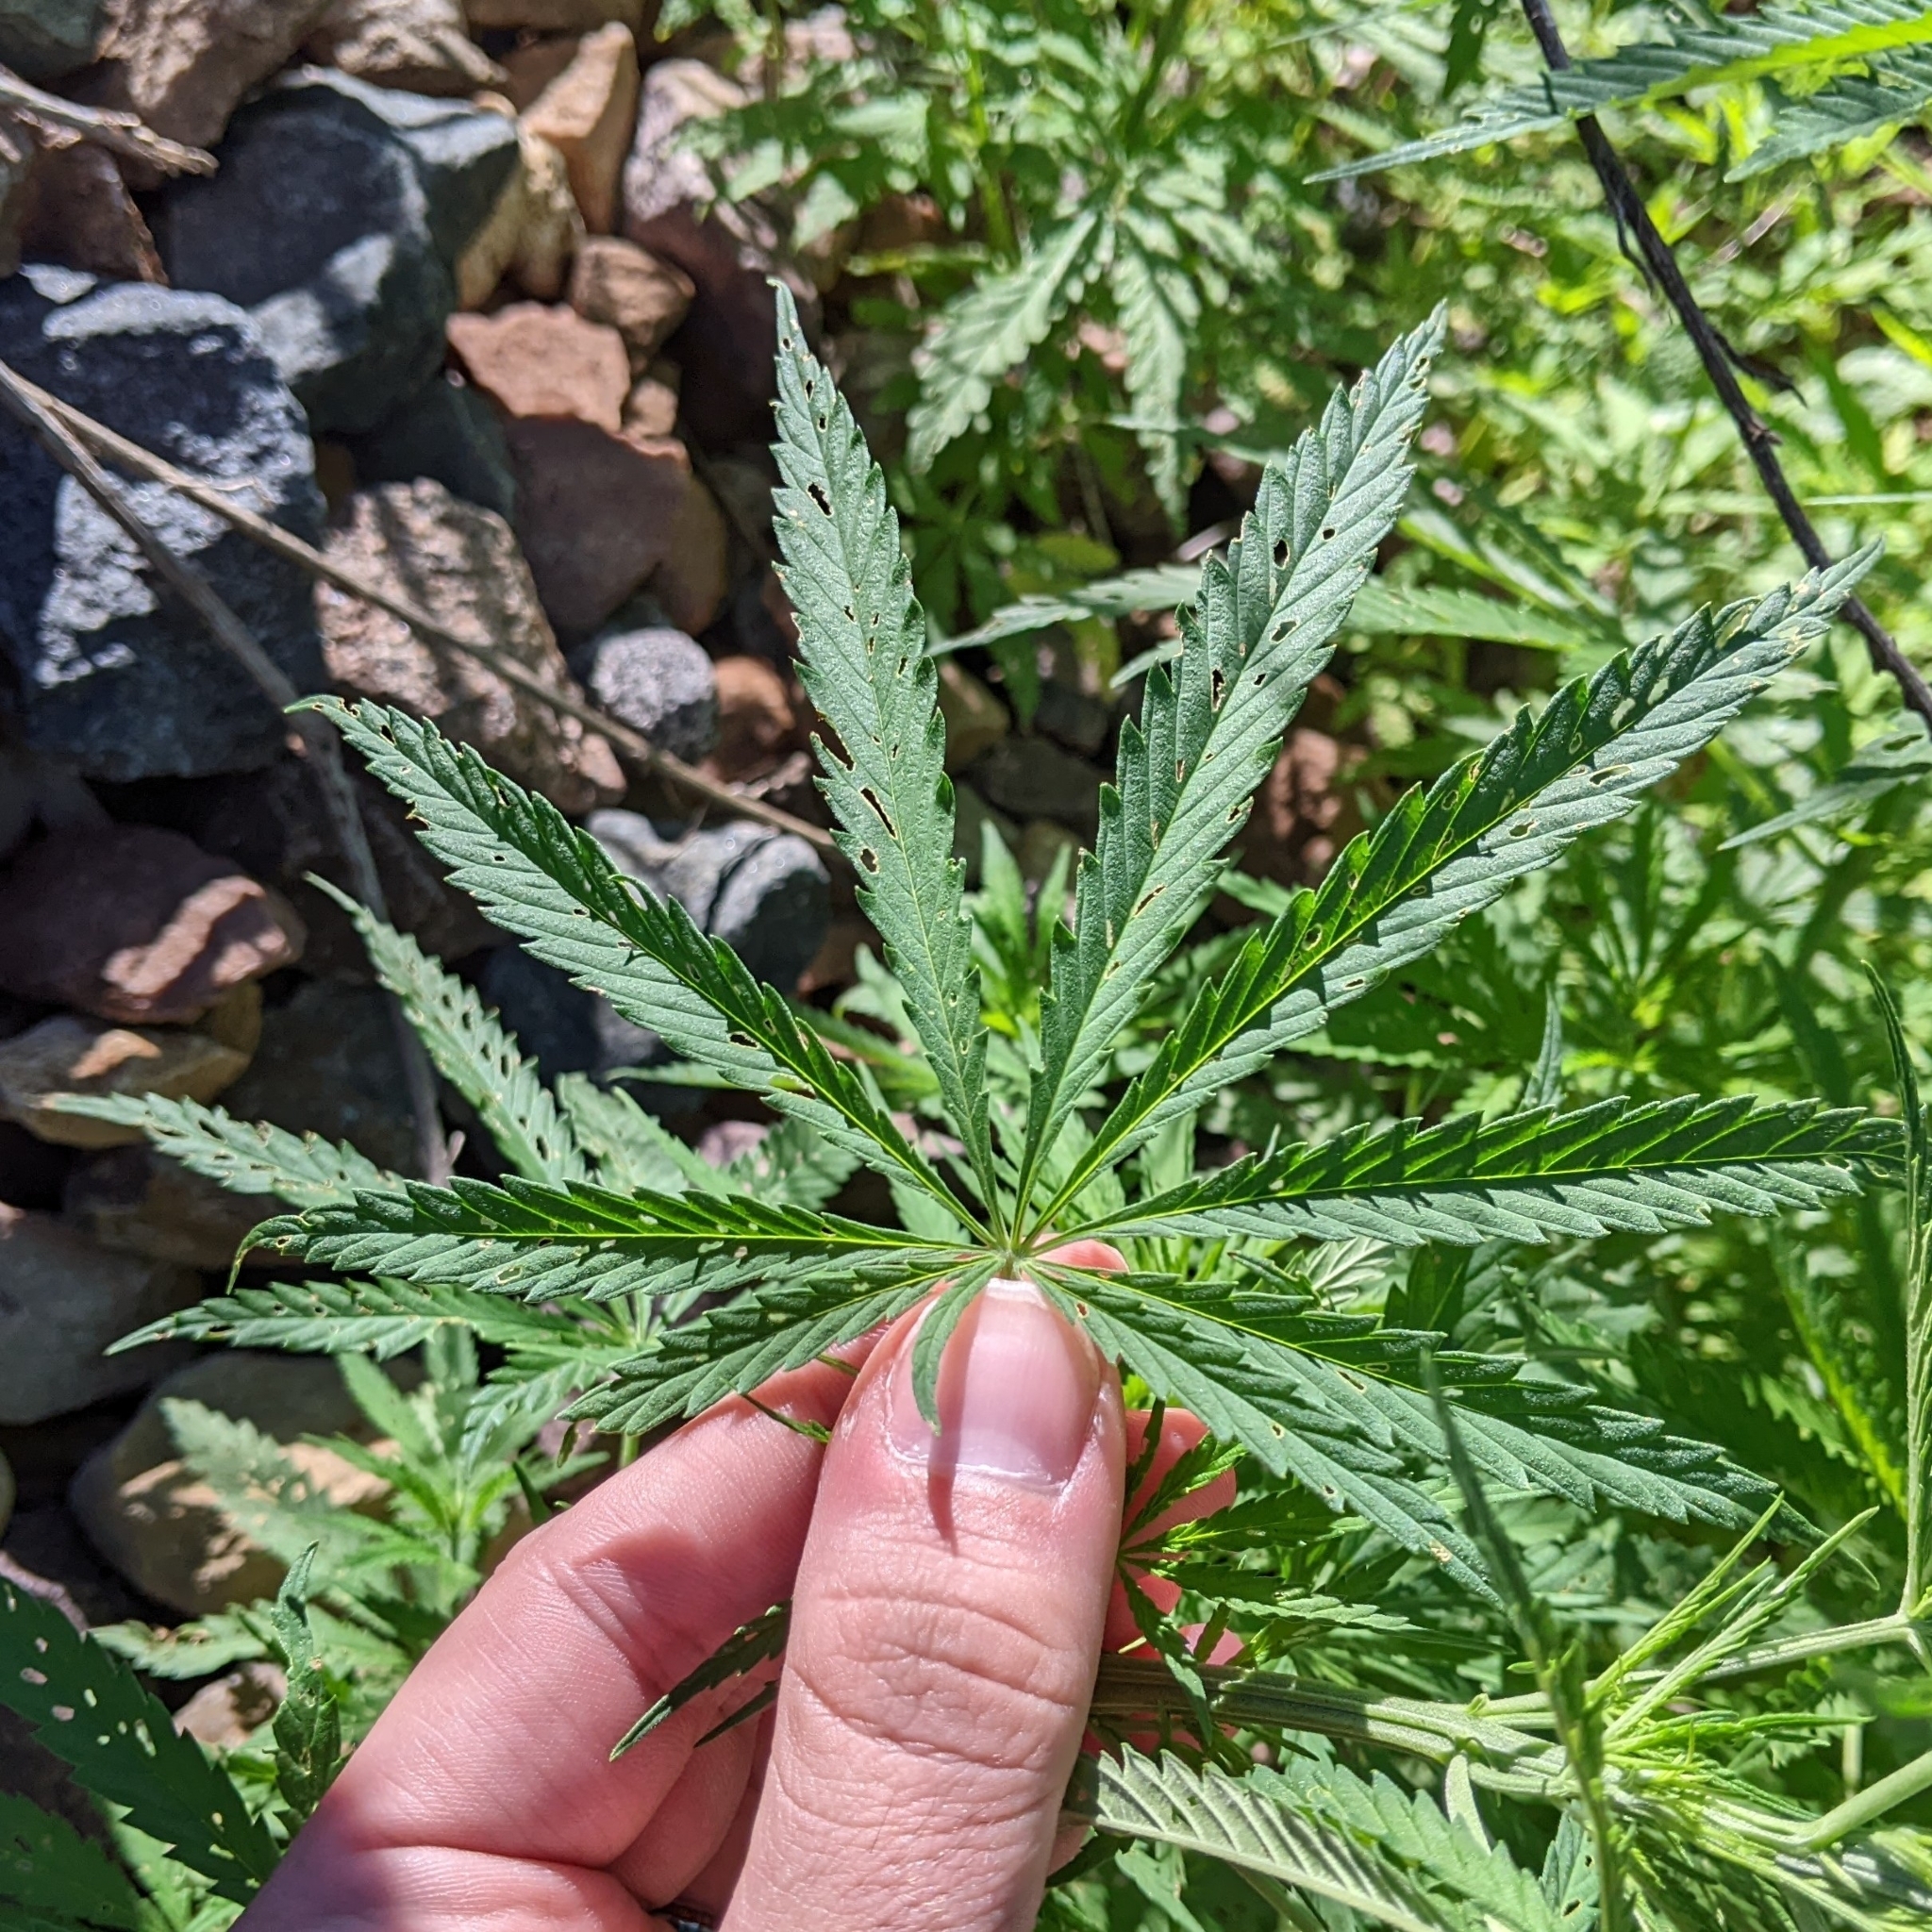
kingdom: Plantae
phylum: Tracheophyta
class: Magnoliopsida
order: Rosales
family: Cannabaceae
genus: Cannabis
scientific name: Cannabis sativa
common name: Hemp
